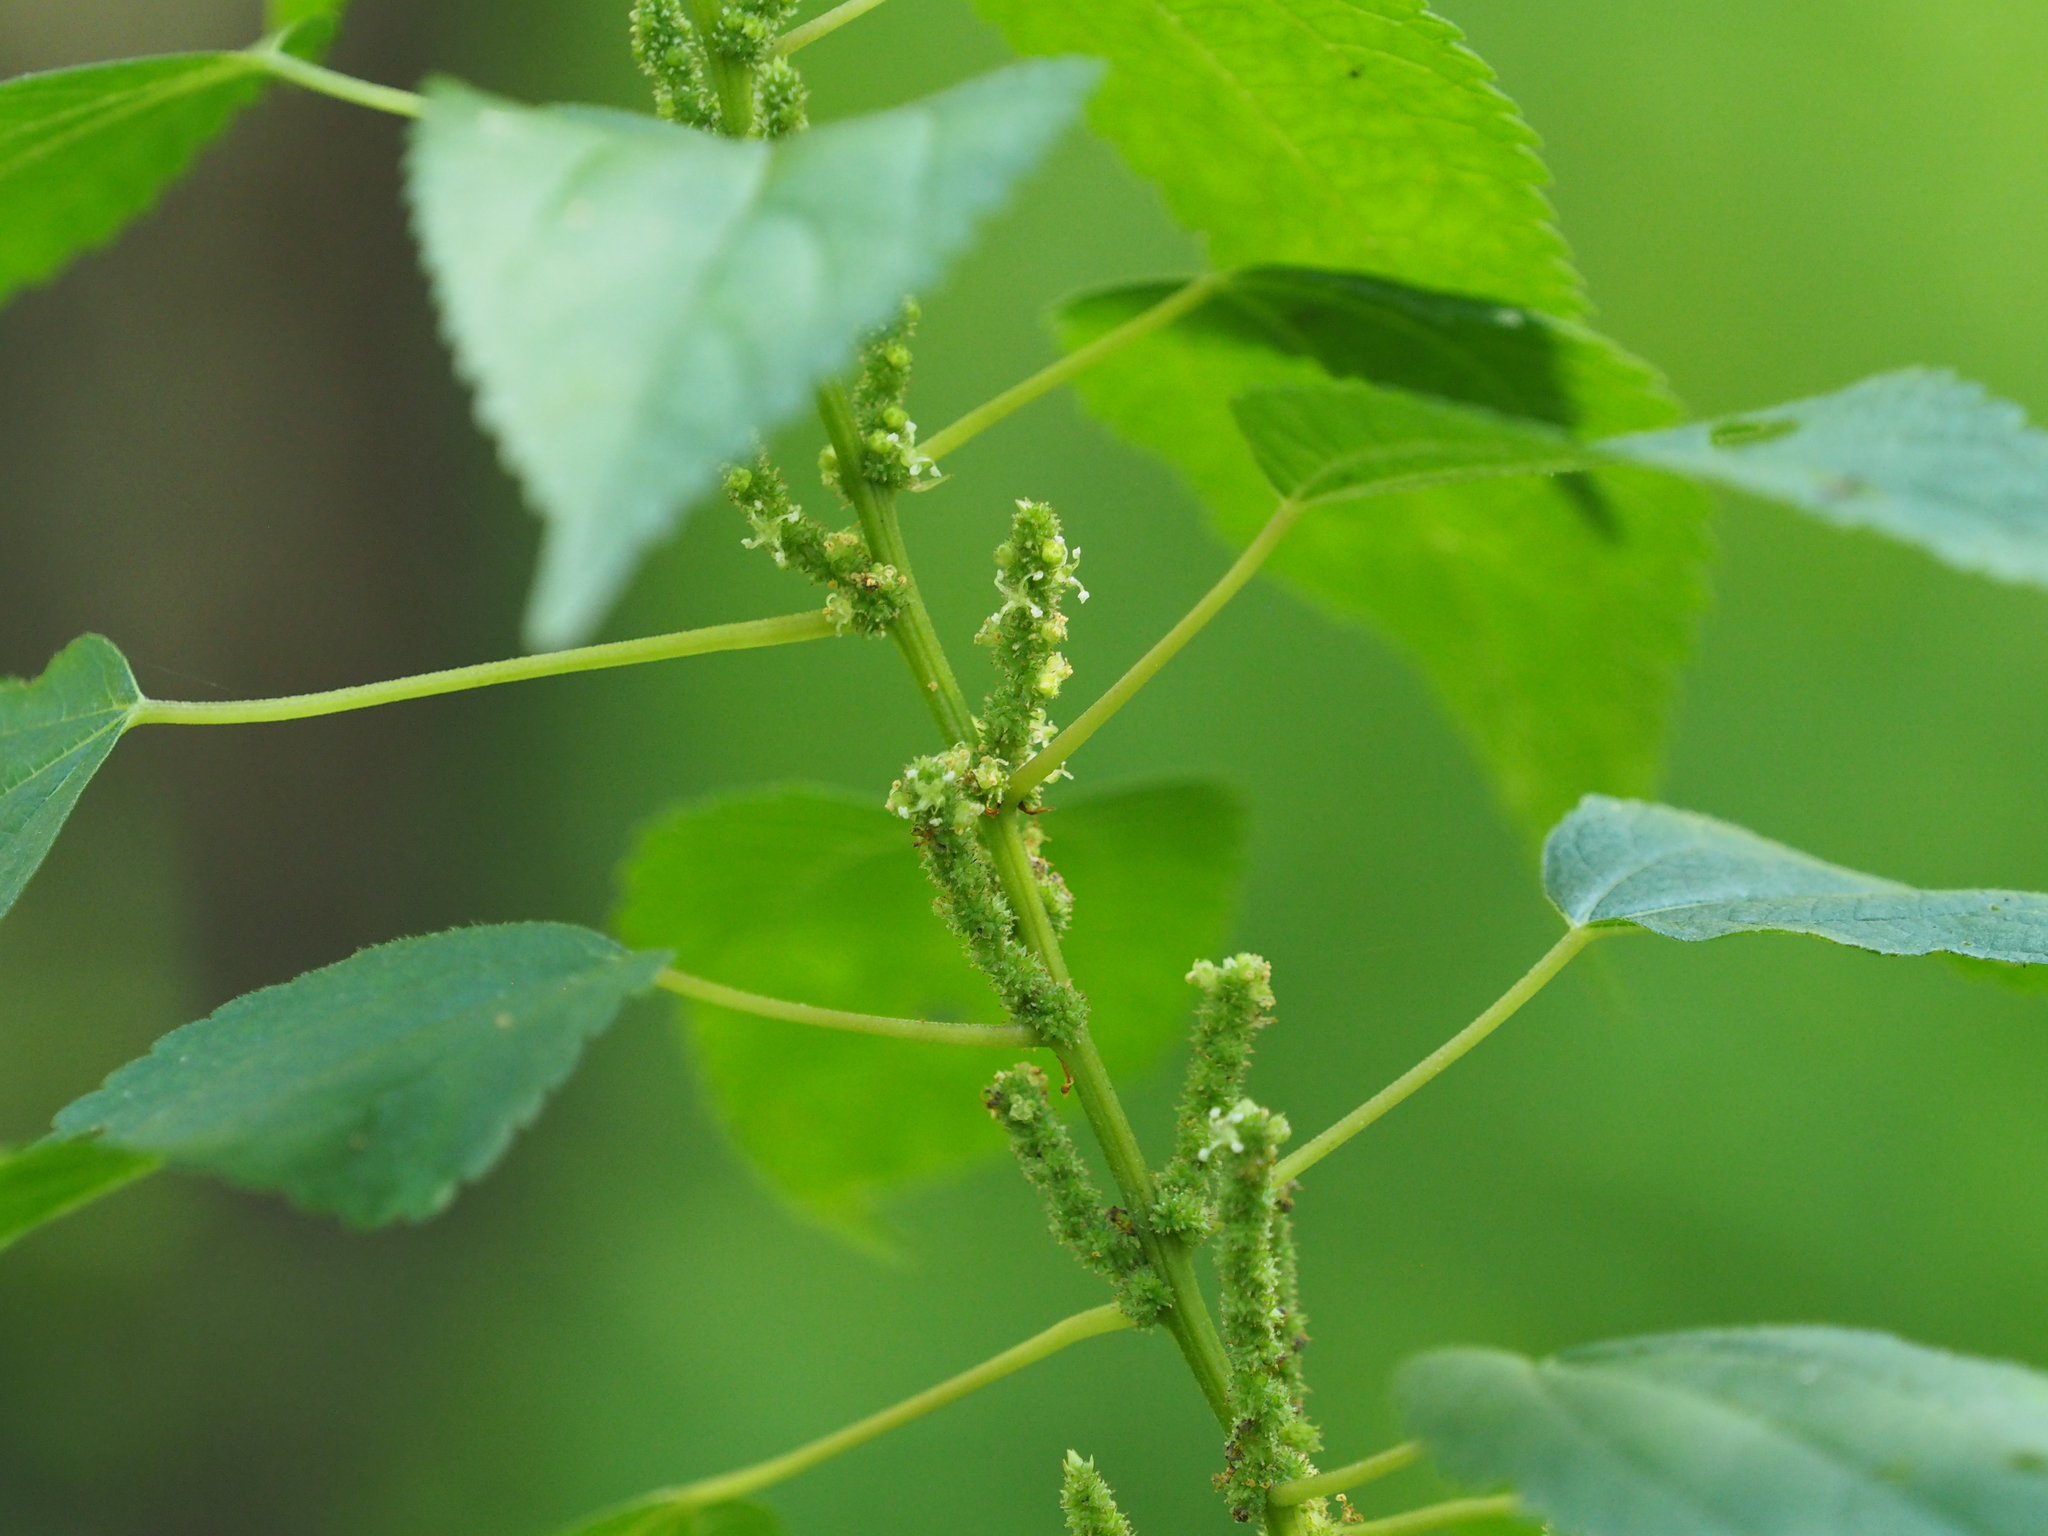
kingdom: Plantae
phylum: Tracheophyta
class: Magnoliopsida
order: Rosales
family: Urticaceae
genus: Boehmeria
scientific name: Boehmeria cylindrica
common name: Bog-hemp
